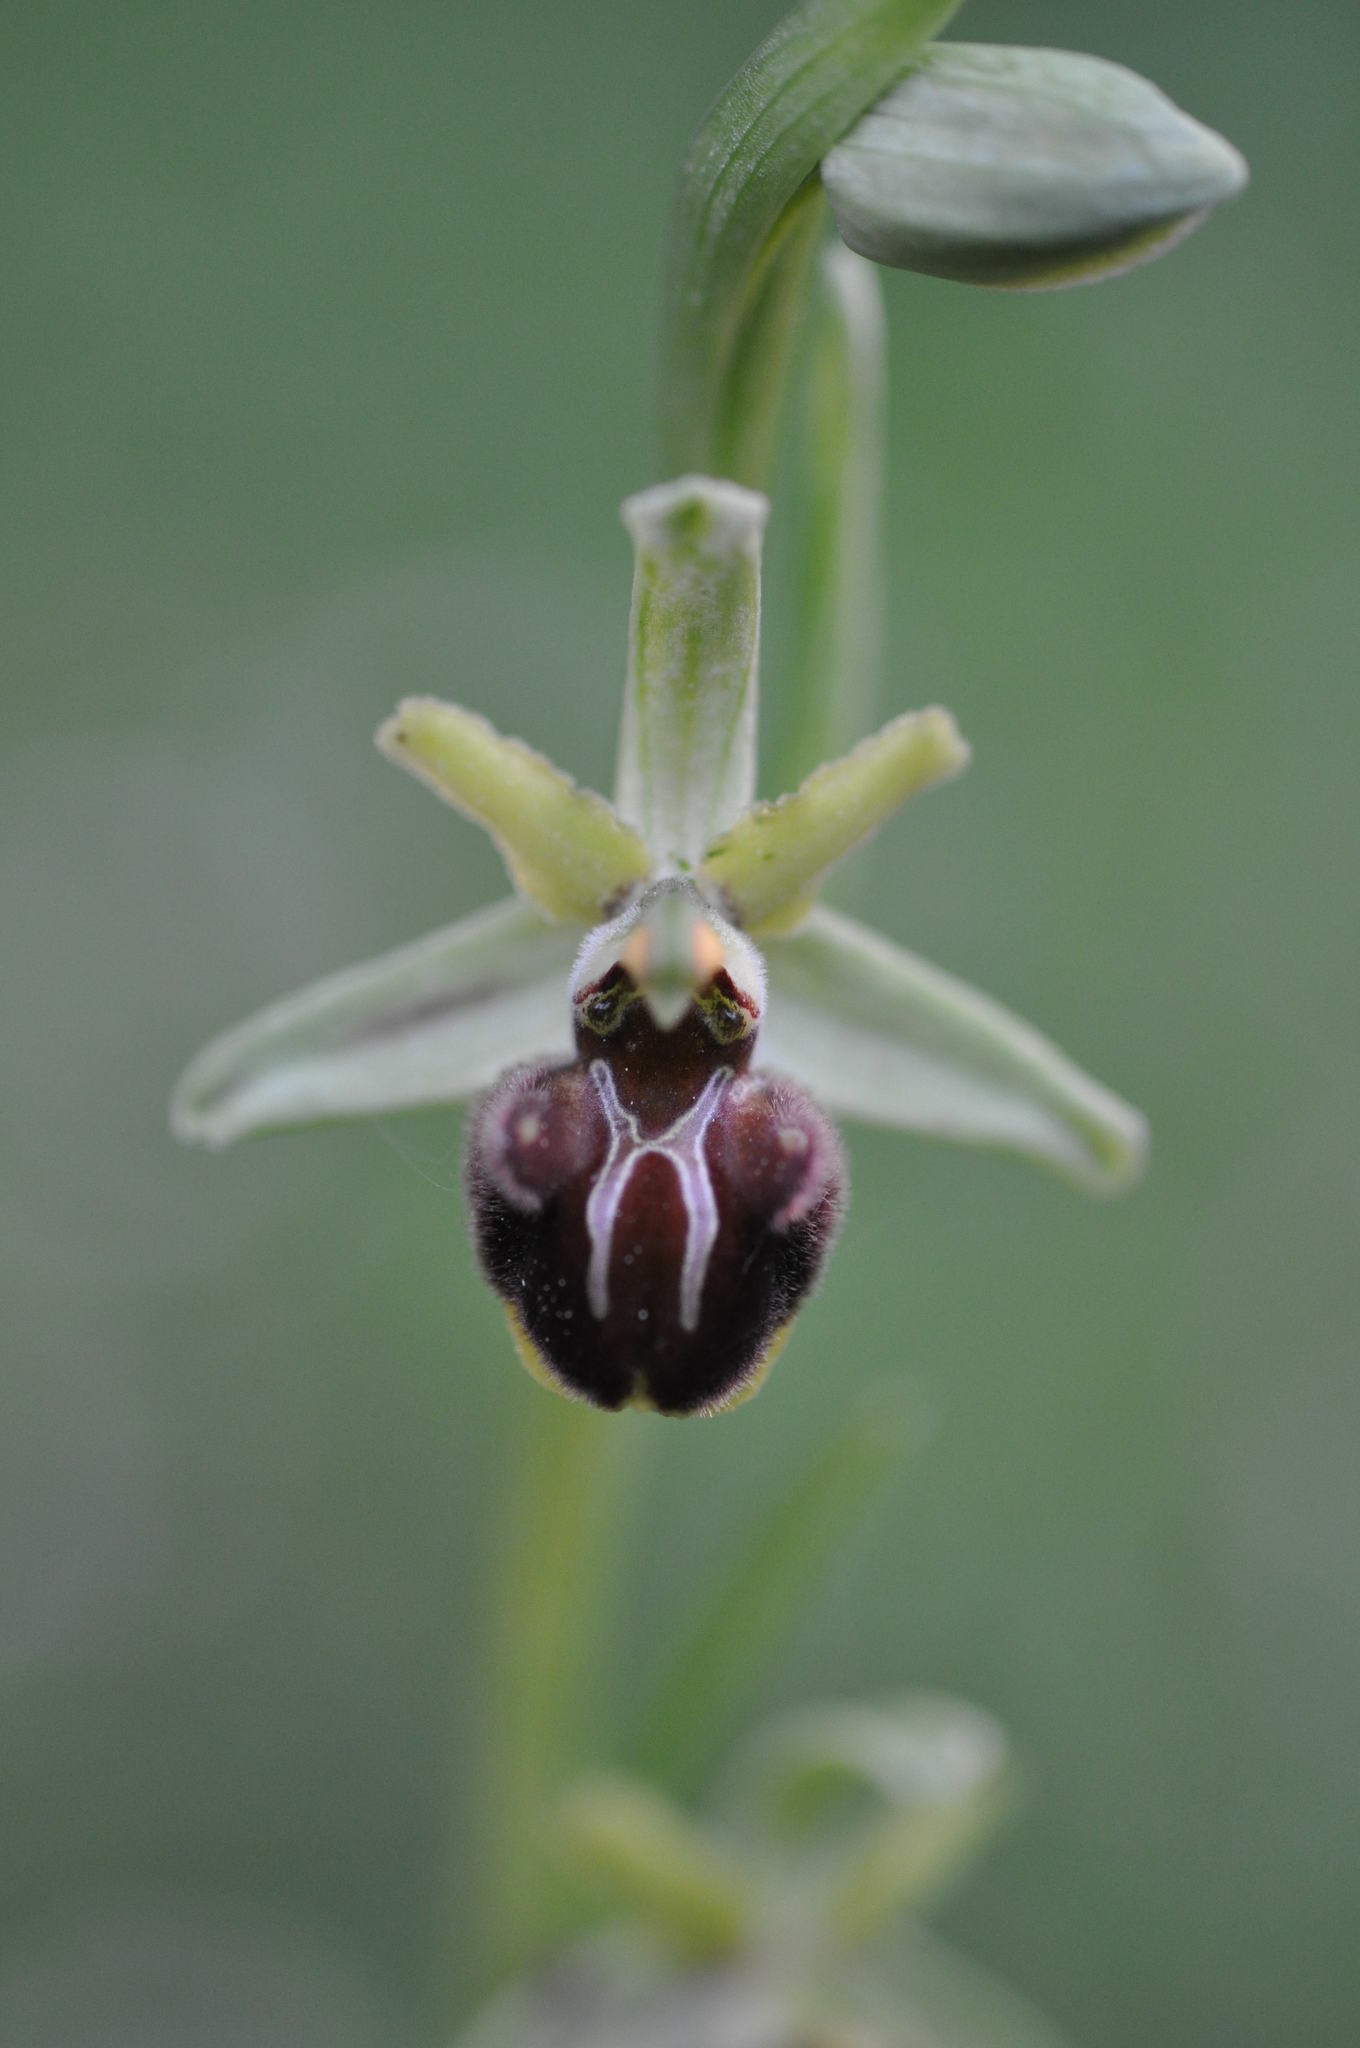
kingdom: Plantae
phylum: Tracheophyta
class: Liliopsida
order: Asparagales
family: Orchidaceae
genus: Ophrys
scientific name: Ophrys sphegodes
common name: Early spider-orchid
